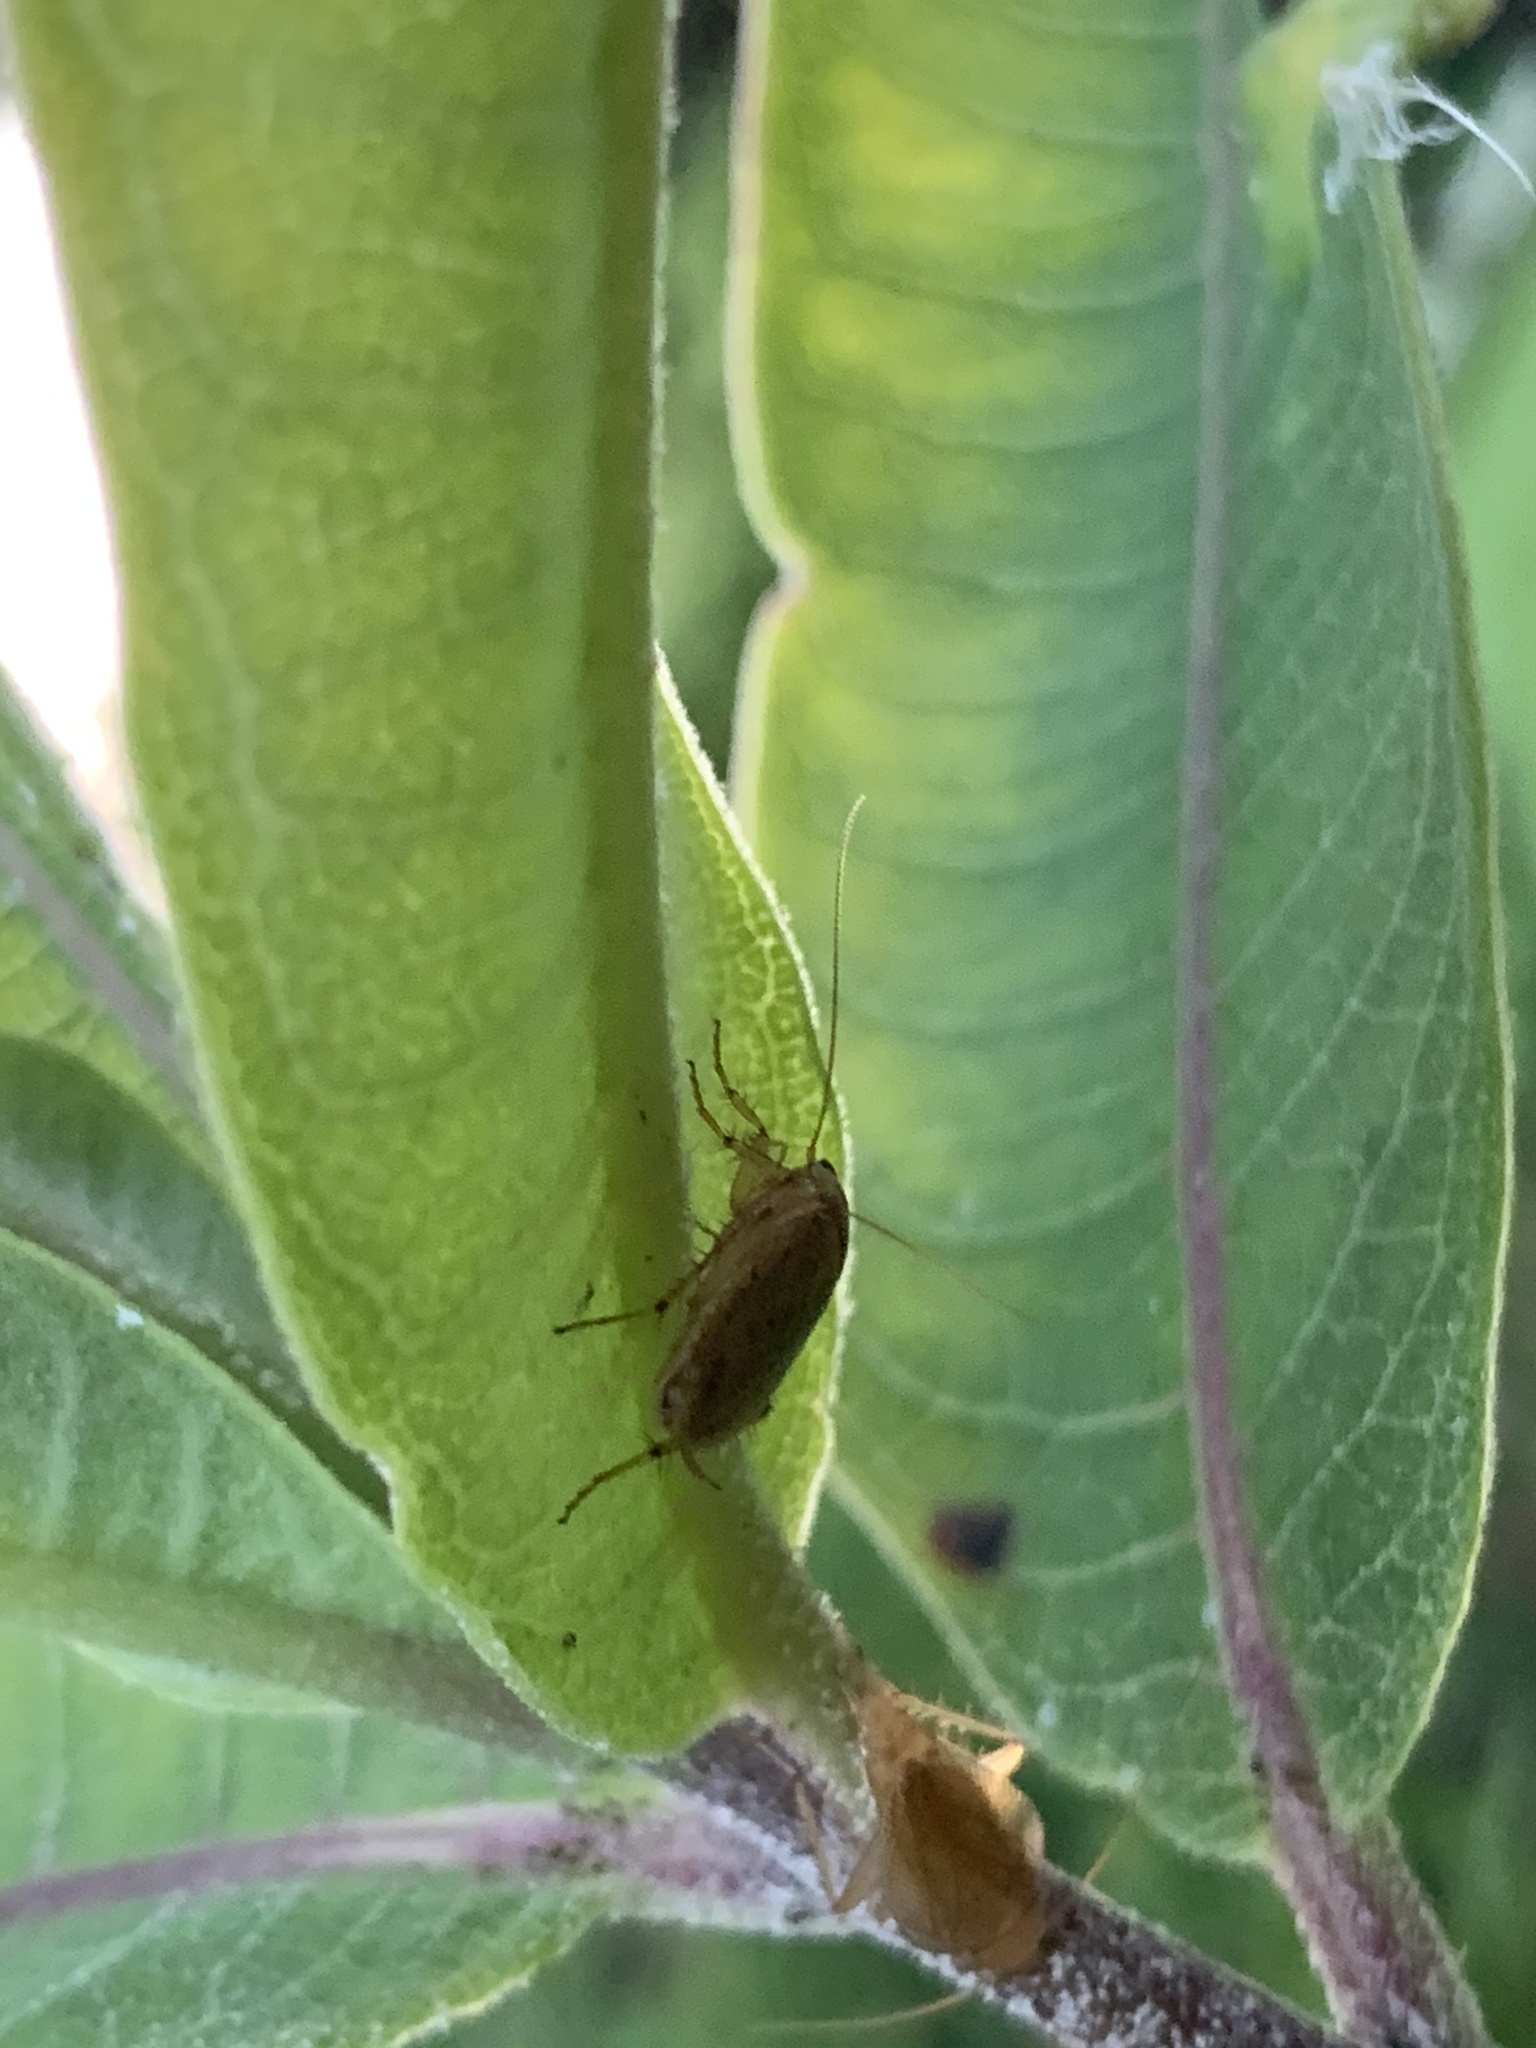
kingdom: Animalia
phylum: Arthropoda
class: Insecta
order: Blattodea
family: Ectobiidae
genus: Ectobius
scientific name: Ectobius pallidus
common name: Tawny cockroach
